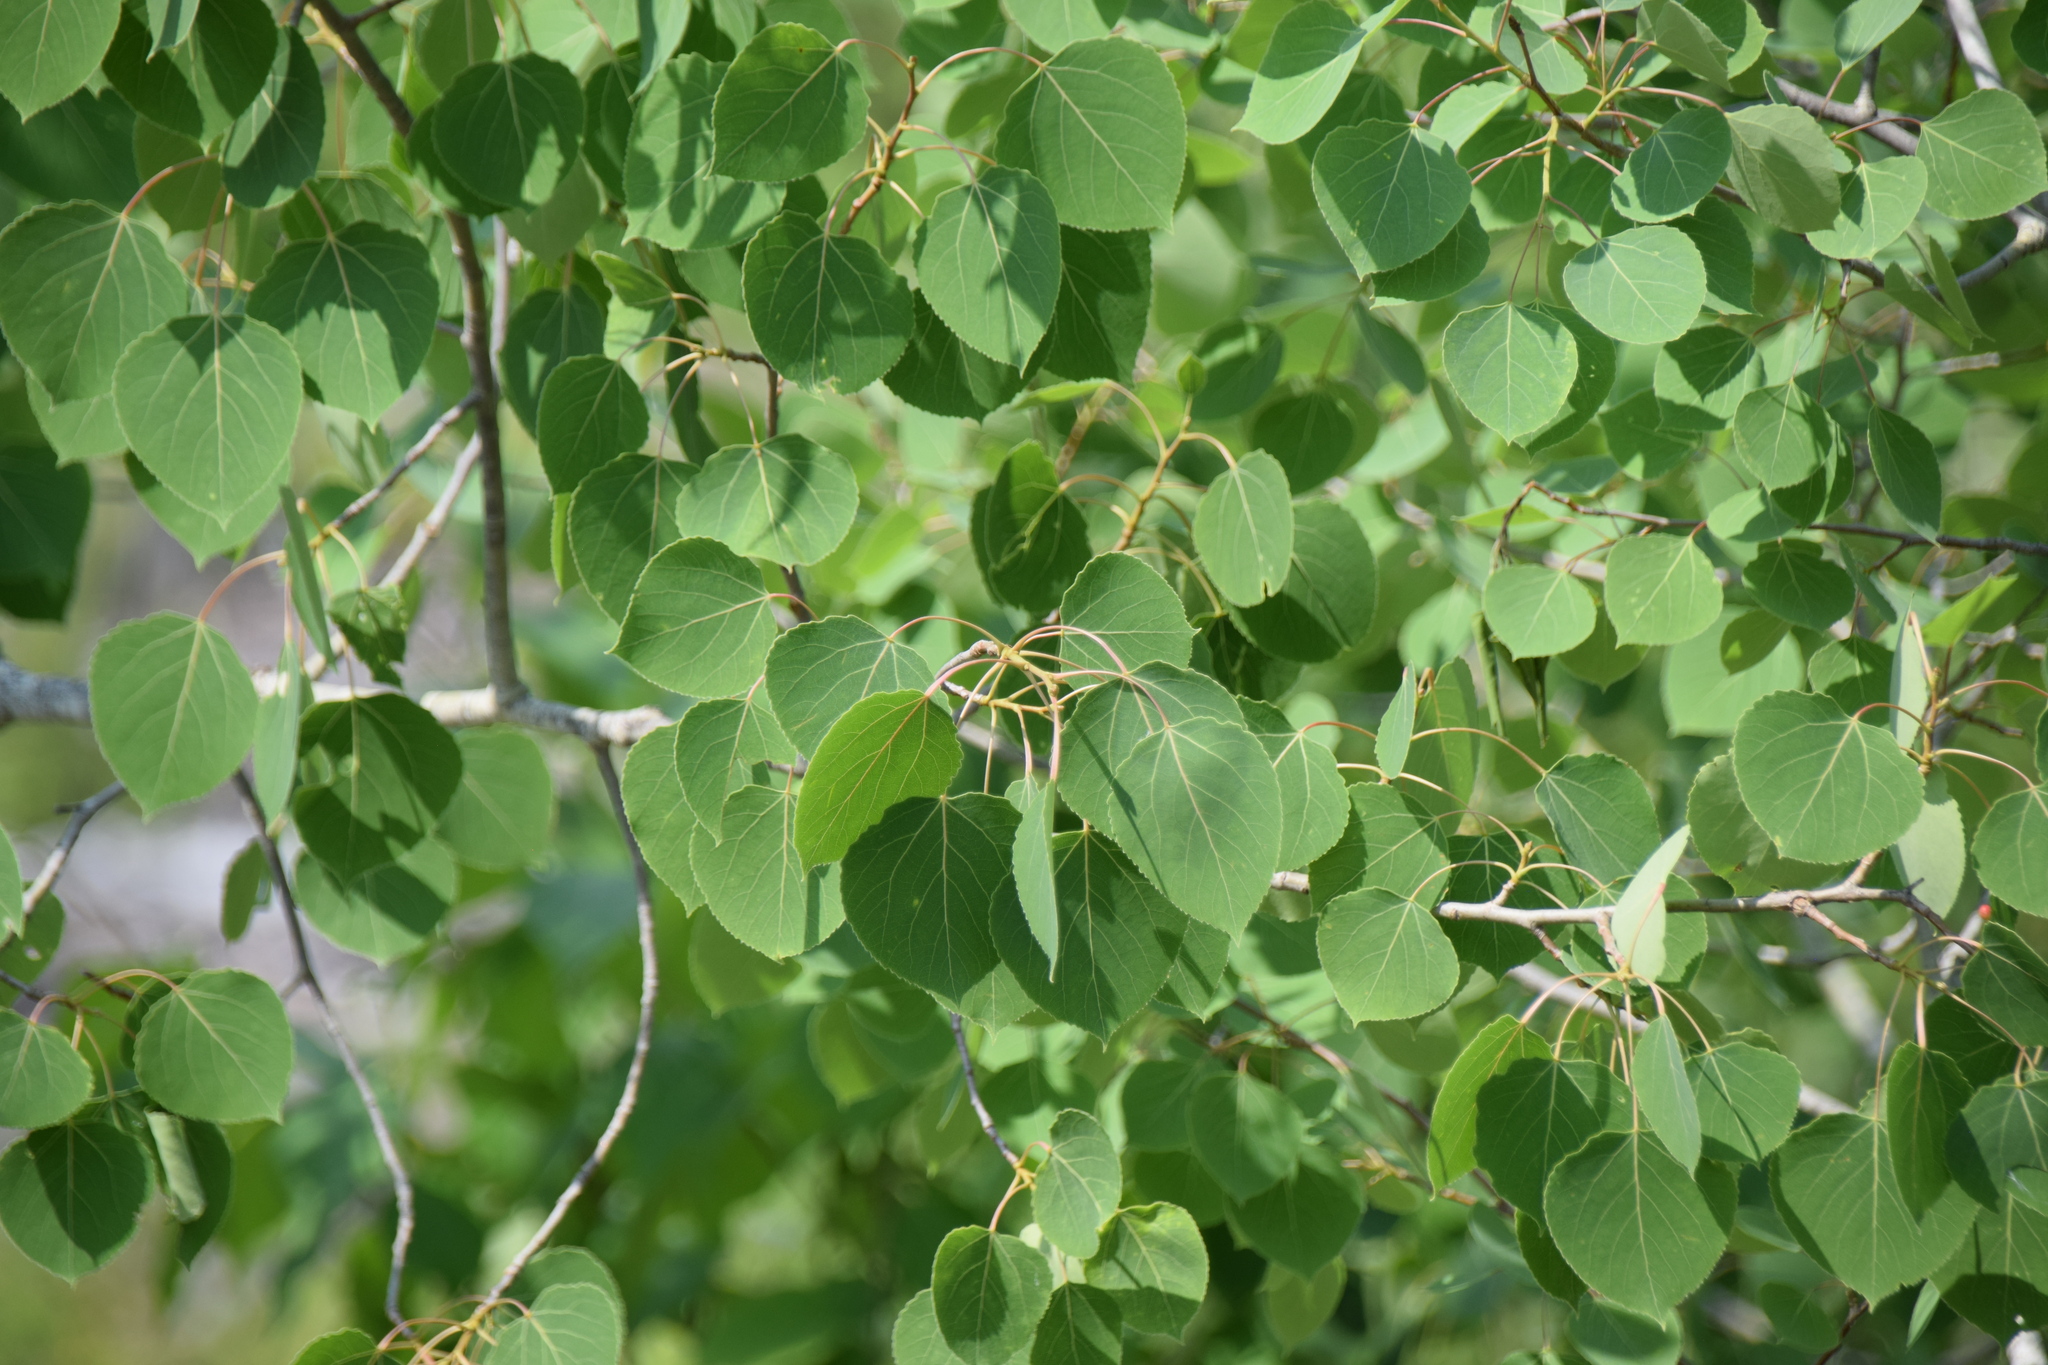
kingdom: Plantae
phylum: Tracheophyta
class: Magnoliopsida
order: Malpighiales
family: Salicaceae
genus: Populus
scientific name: Populus tremuloides
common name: Quaking aspen
